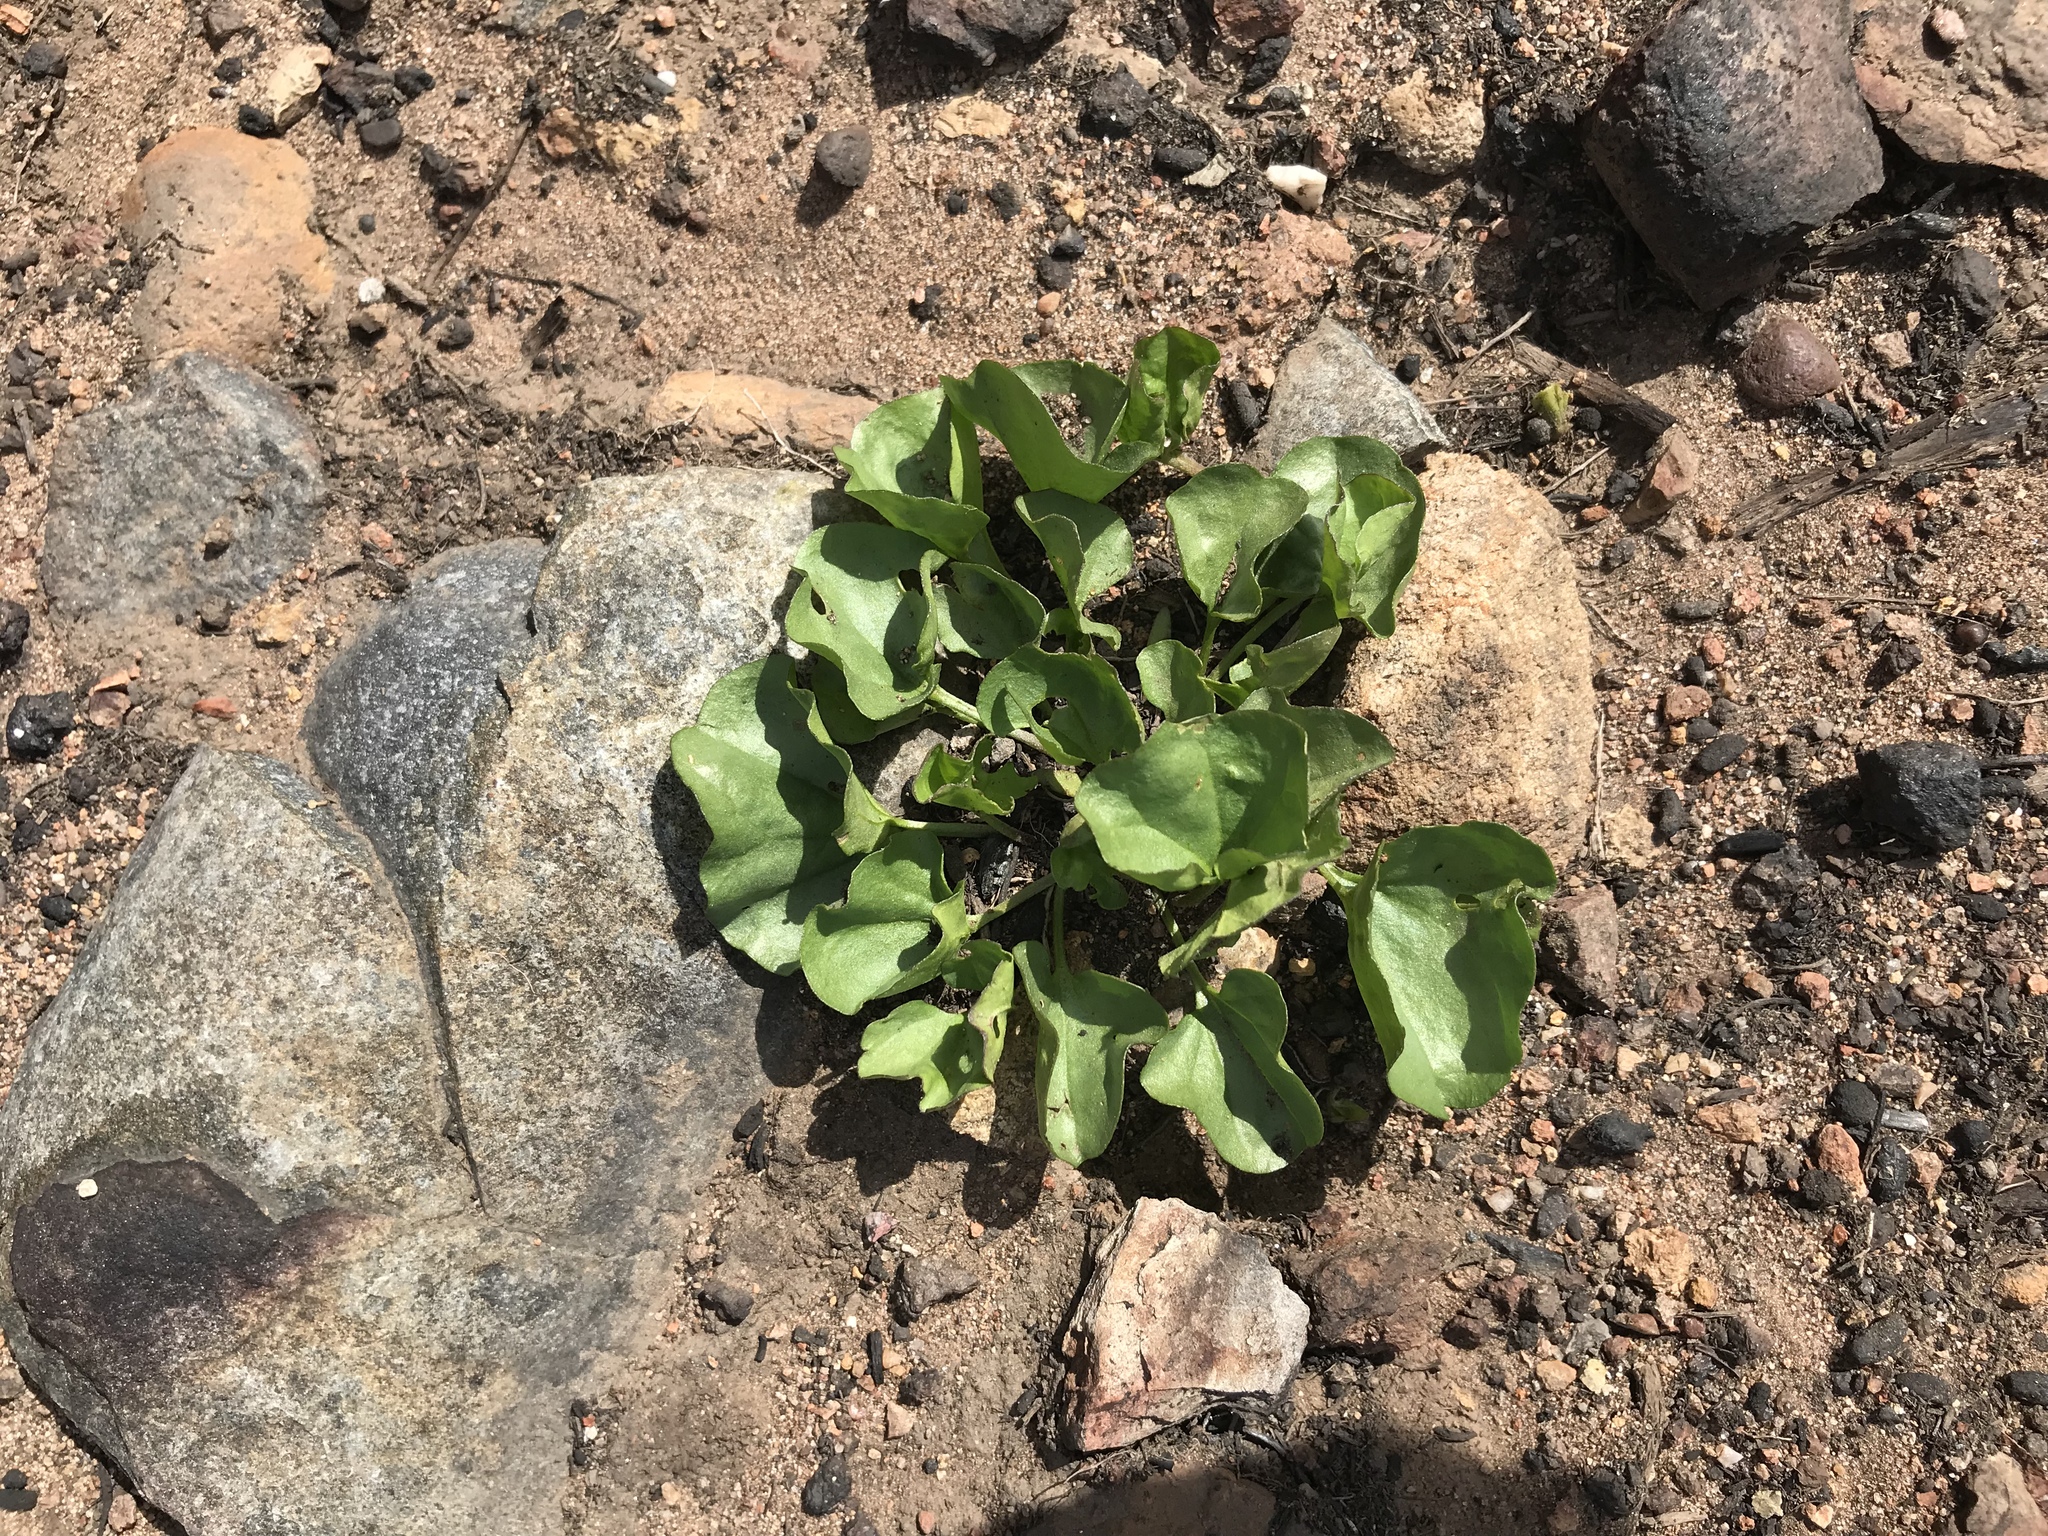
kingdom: Plantae
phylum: Tracheophyta
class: Magnoliopsida
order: Solanales
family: Convolvulaceae
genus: Dichondra
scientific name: Dichondra occidentalis
